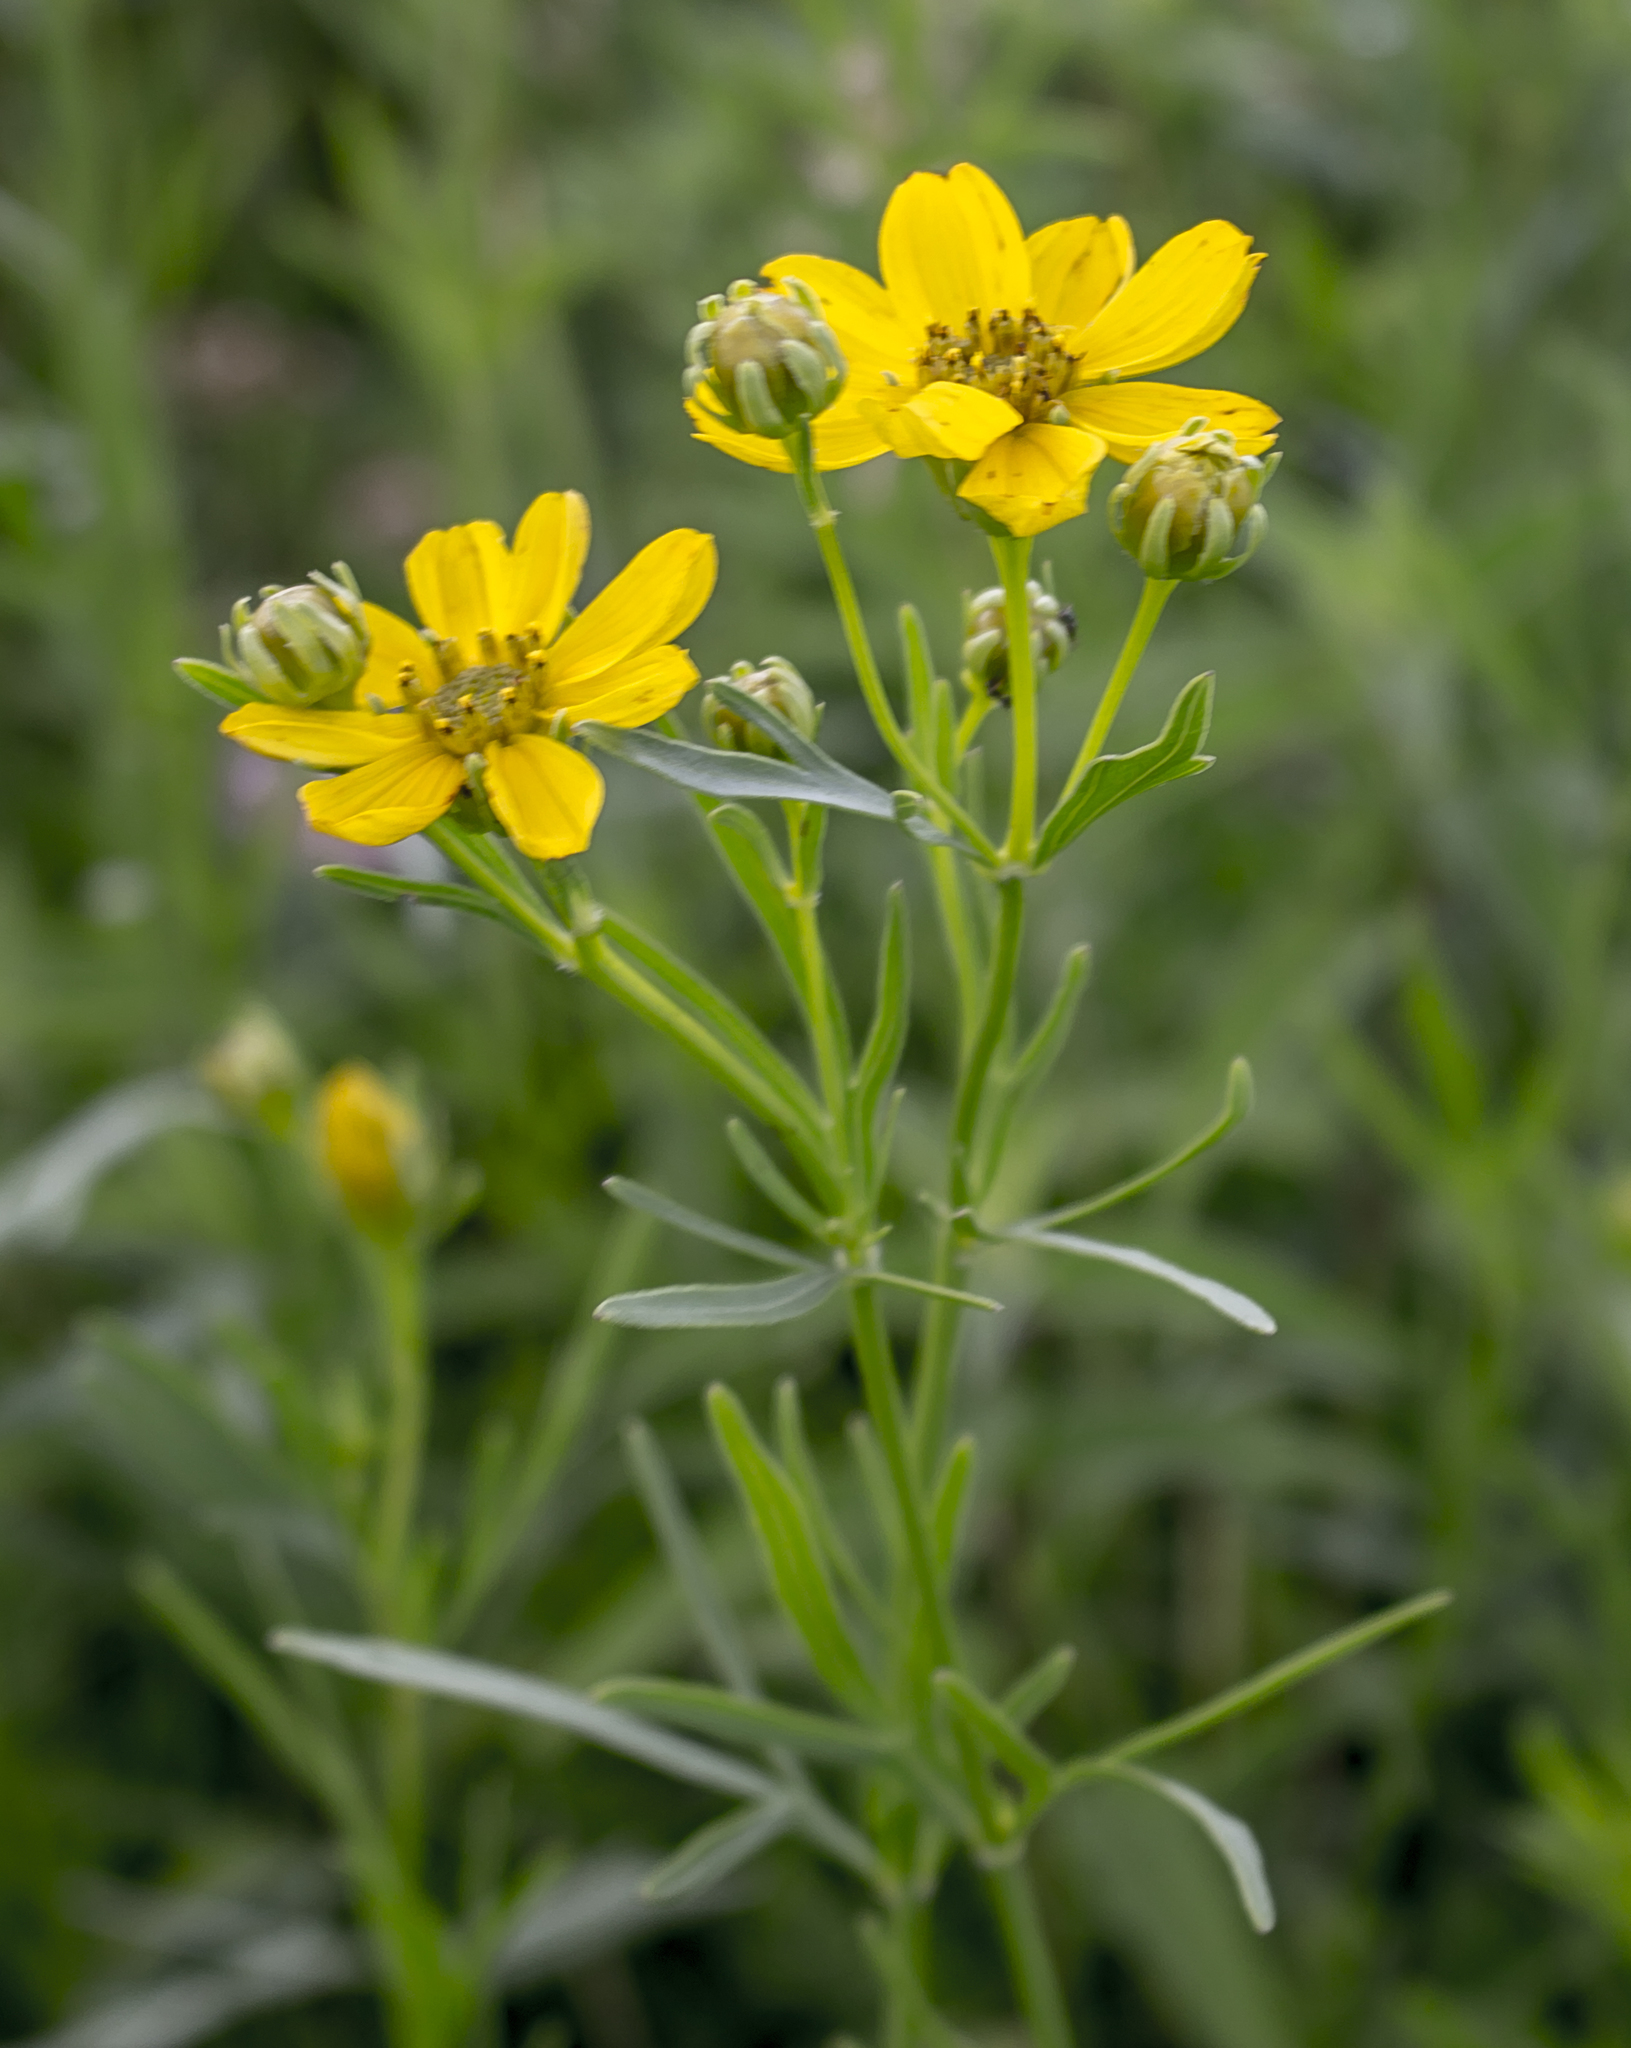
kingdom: Plantae
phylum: Tracheophyta
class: Magnoliopsida
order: Asterales
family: Asteraceae
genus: Coreopsis
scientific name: Coreopsis palmata
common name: Prairie coreopsis
